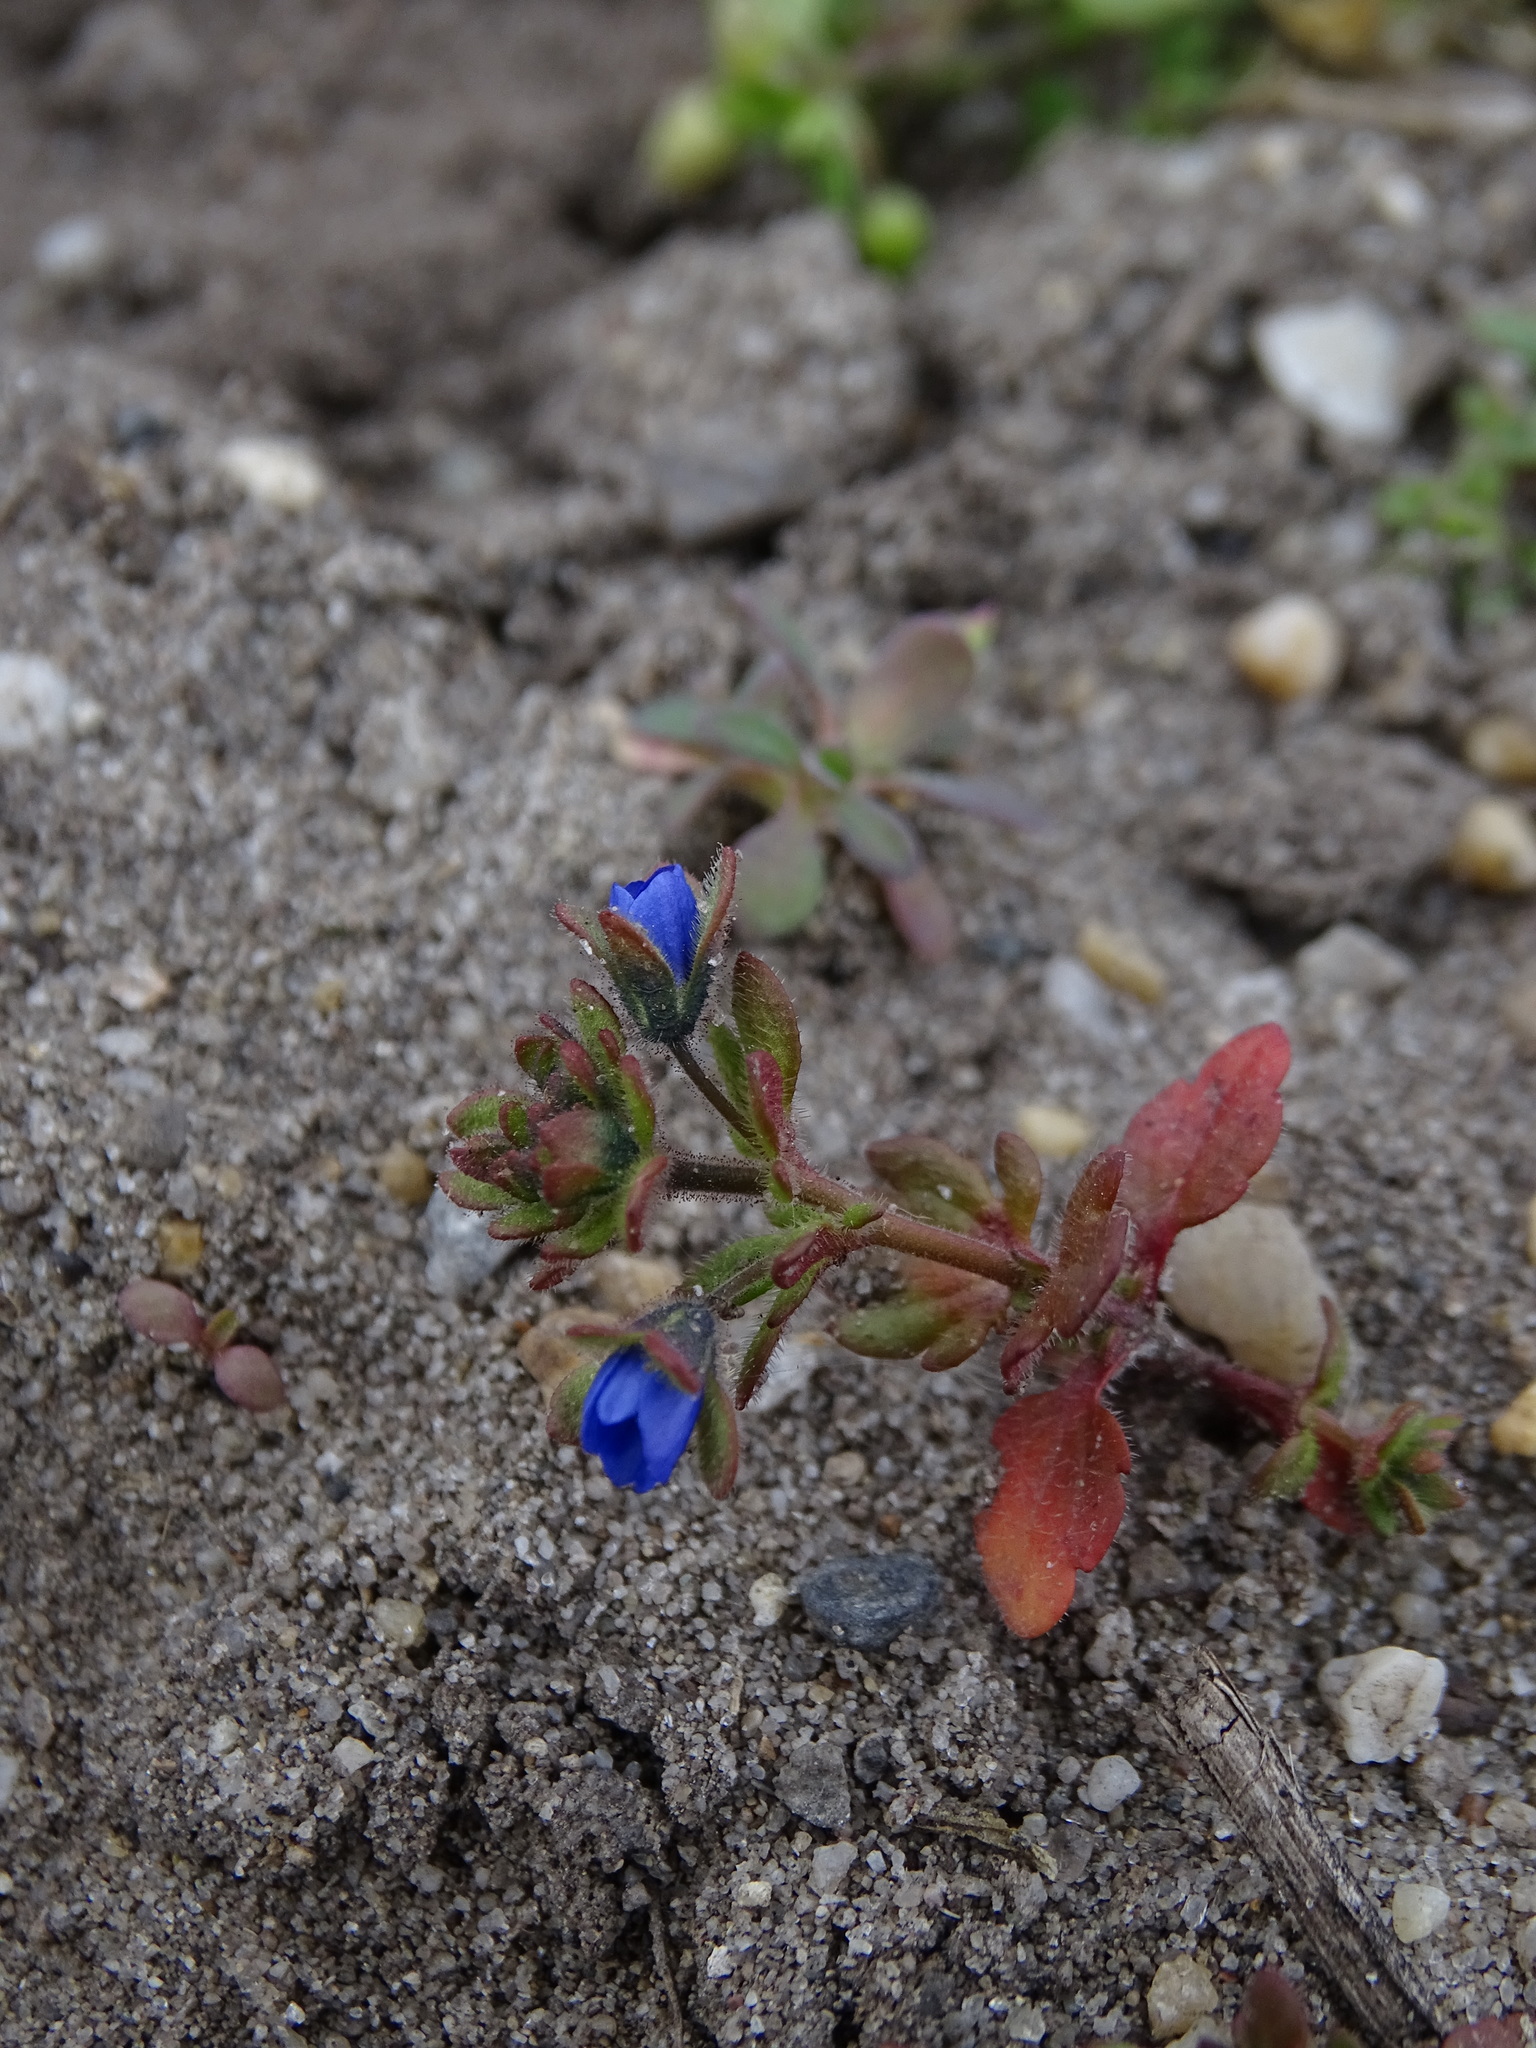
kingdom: Plantae
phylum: Tracheophyta
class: Magnoliopsida
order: Lamiales
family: Plantaginaceae
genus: Veronica
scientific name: Veronica triphyllos
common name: Fingered speedwell
